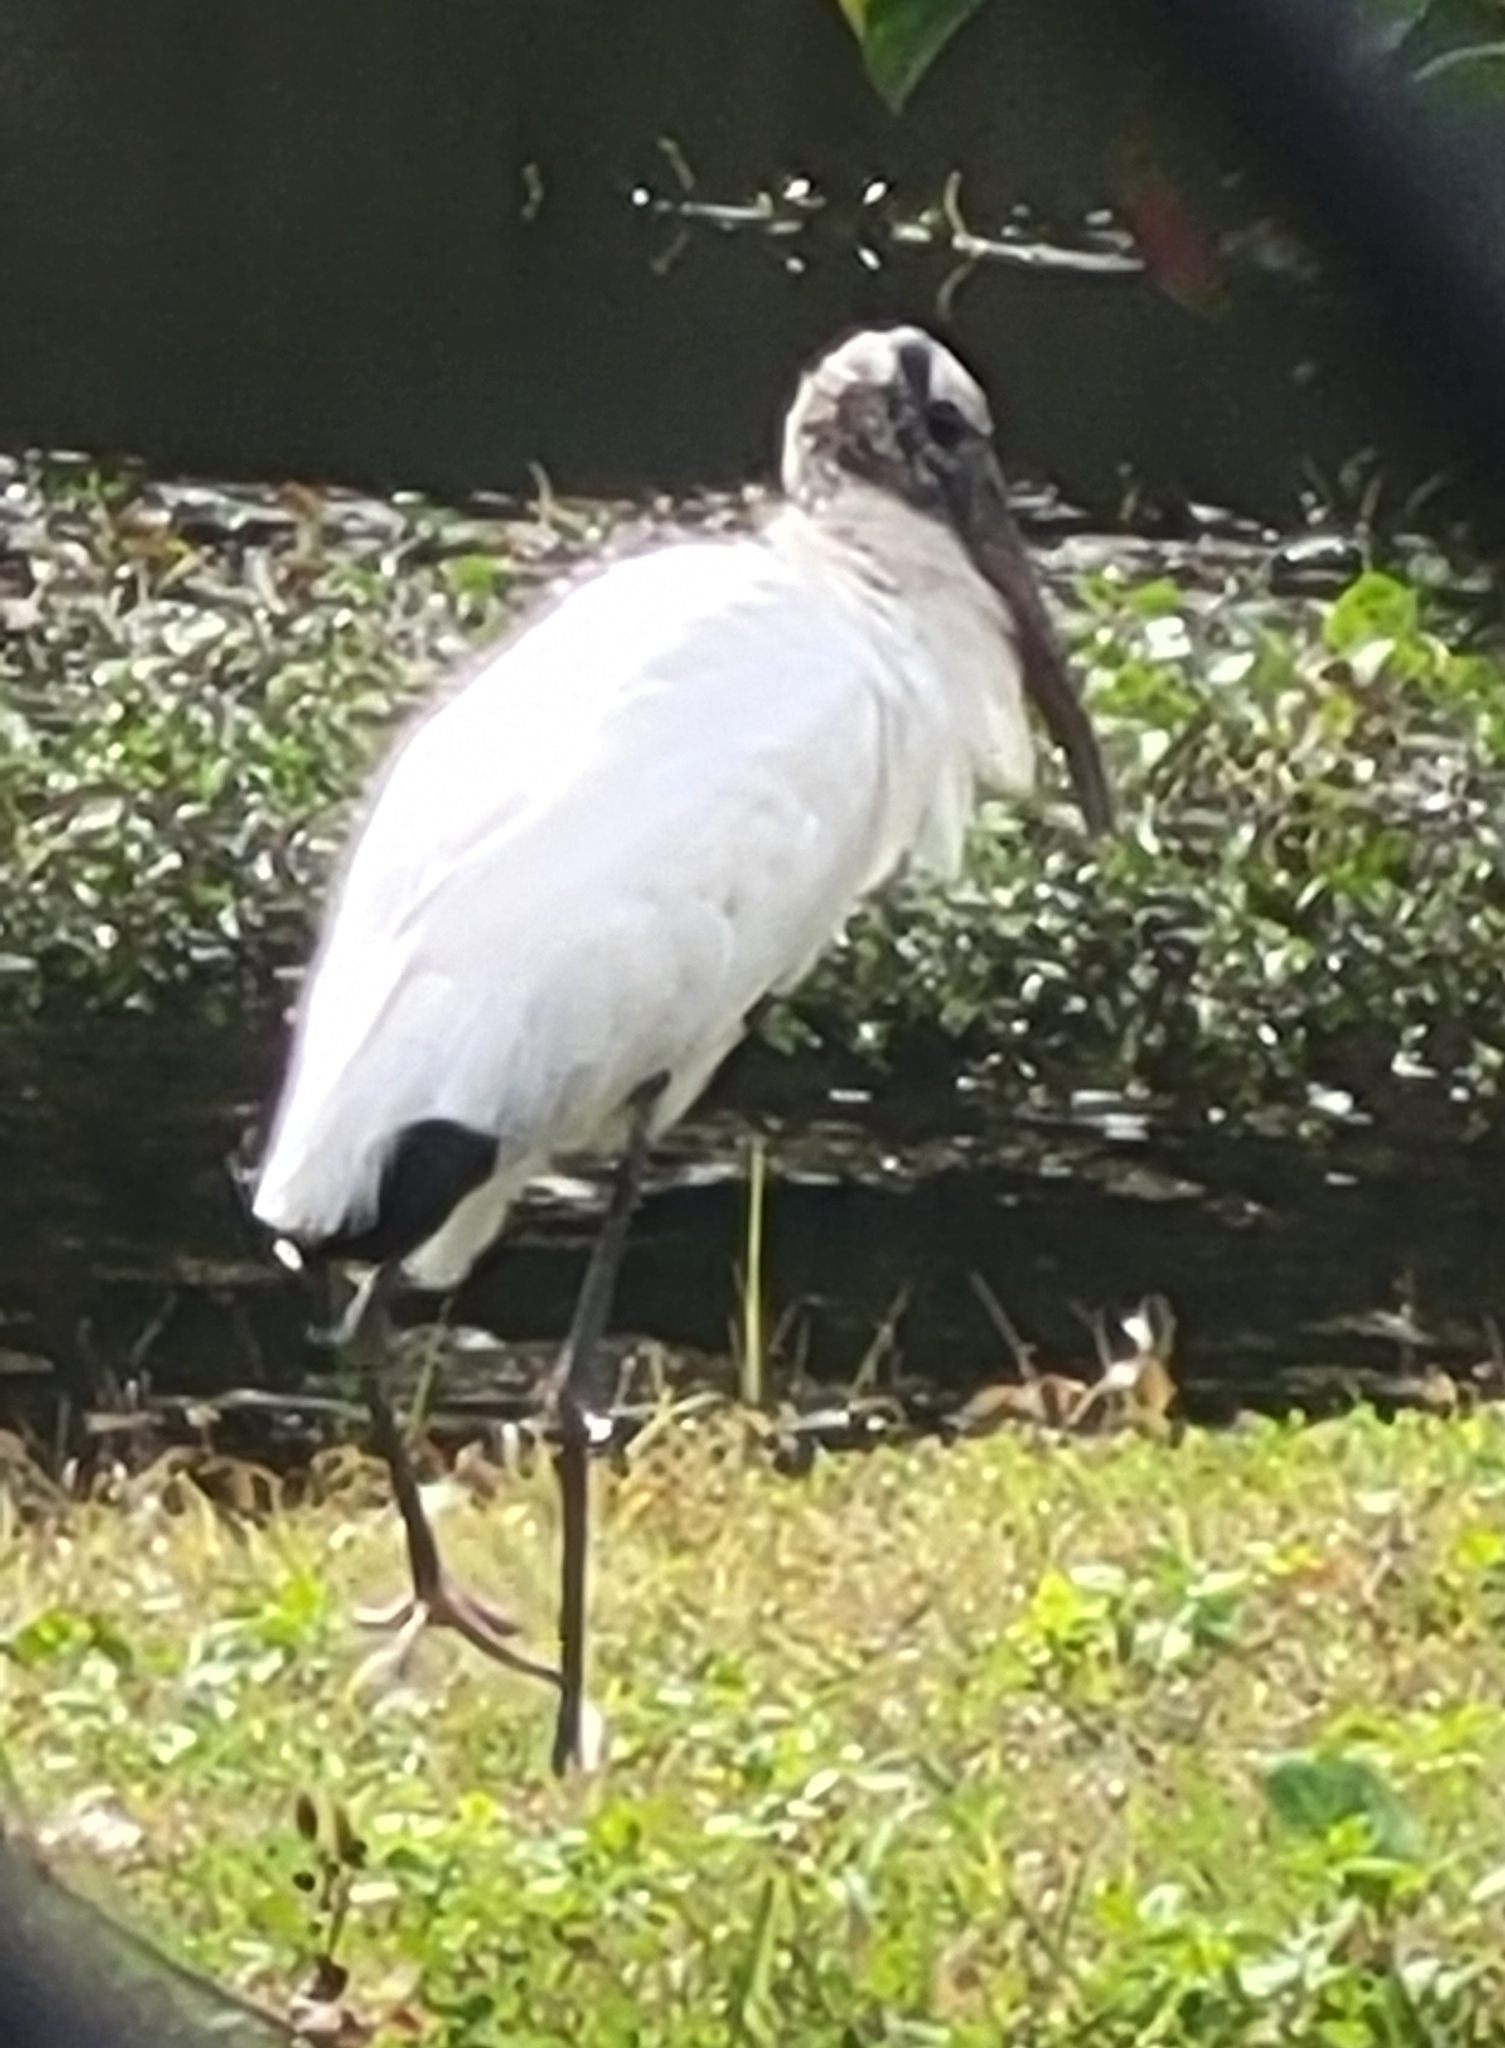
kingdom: Animalia
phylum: Chordata
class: Aves
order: Ciconiiformes
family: Ciconiidae
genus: Mycteria
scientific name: Mycteria americana
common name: Wood stork
